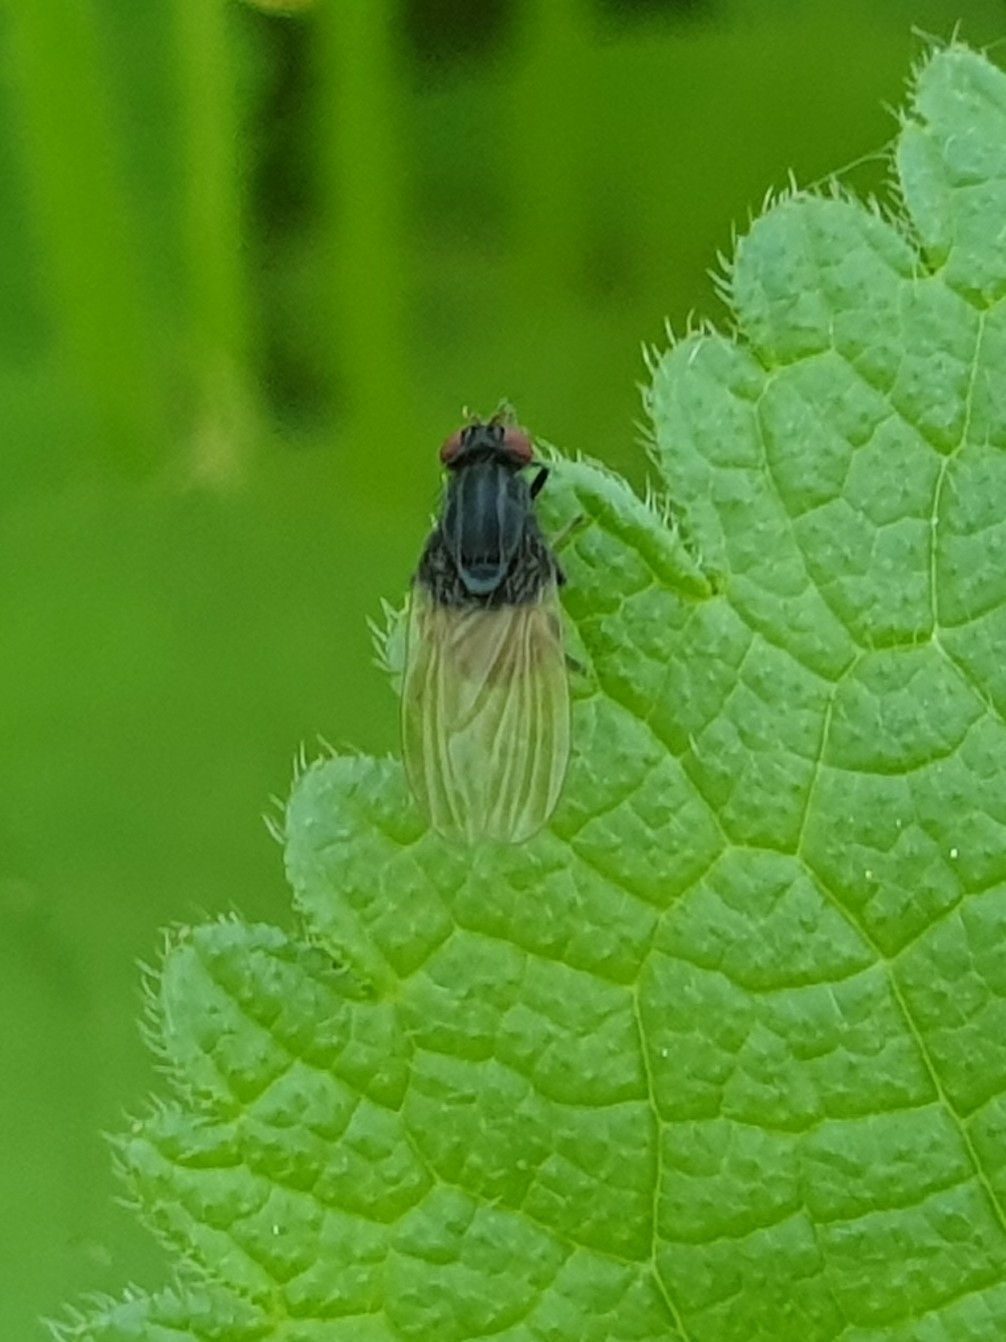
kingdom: Animalia
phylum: Arthropoda
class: Insecta
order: Diptera
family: Lauxaniidae
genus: Minettia
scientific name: Minettia longipennis
